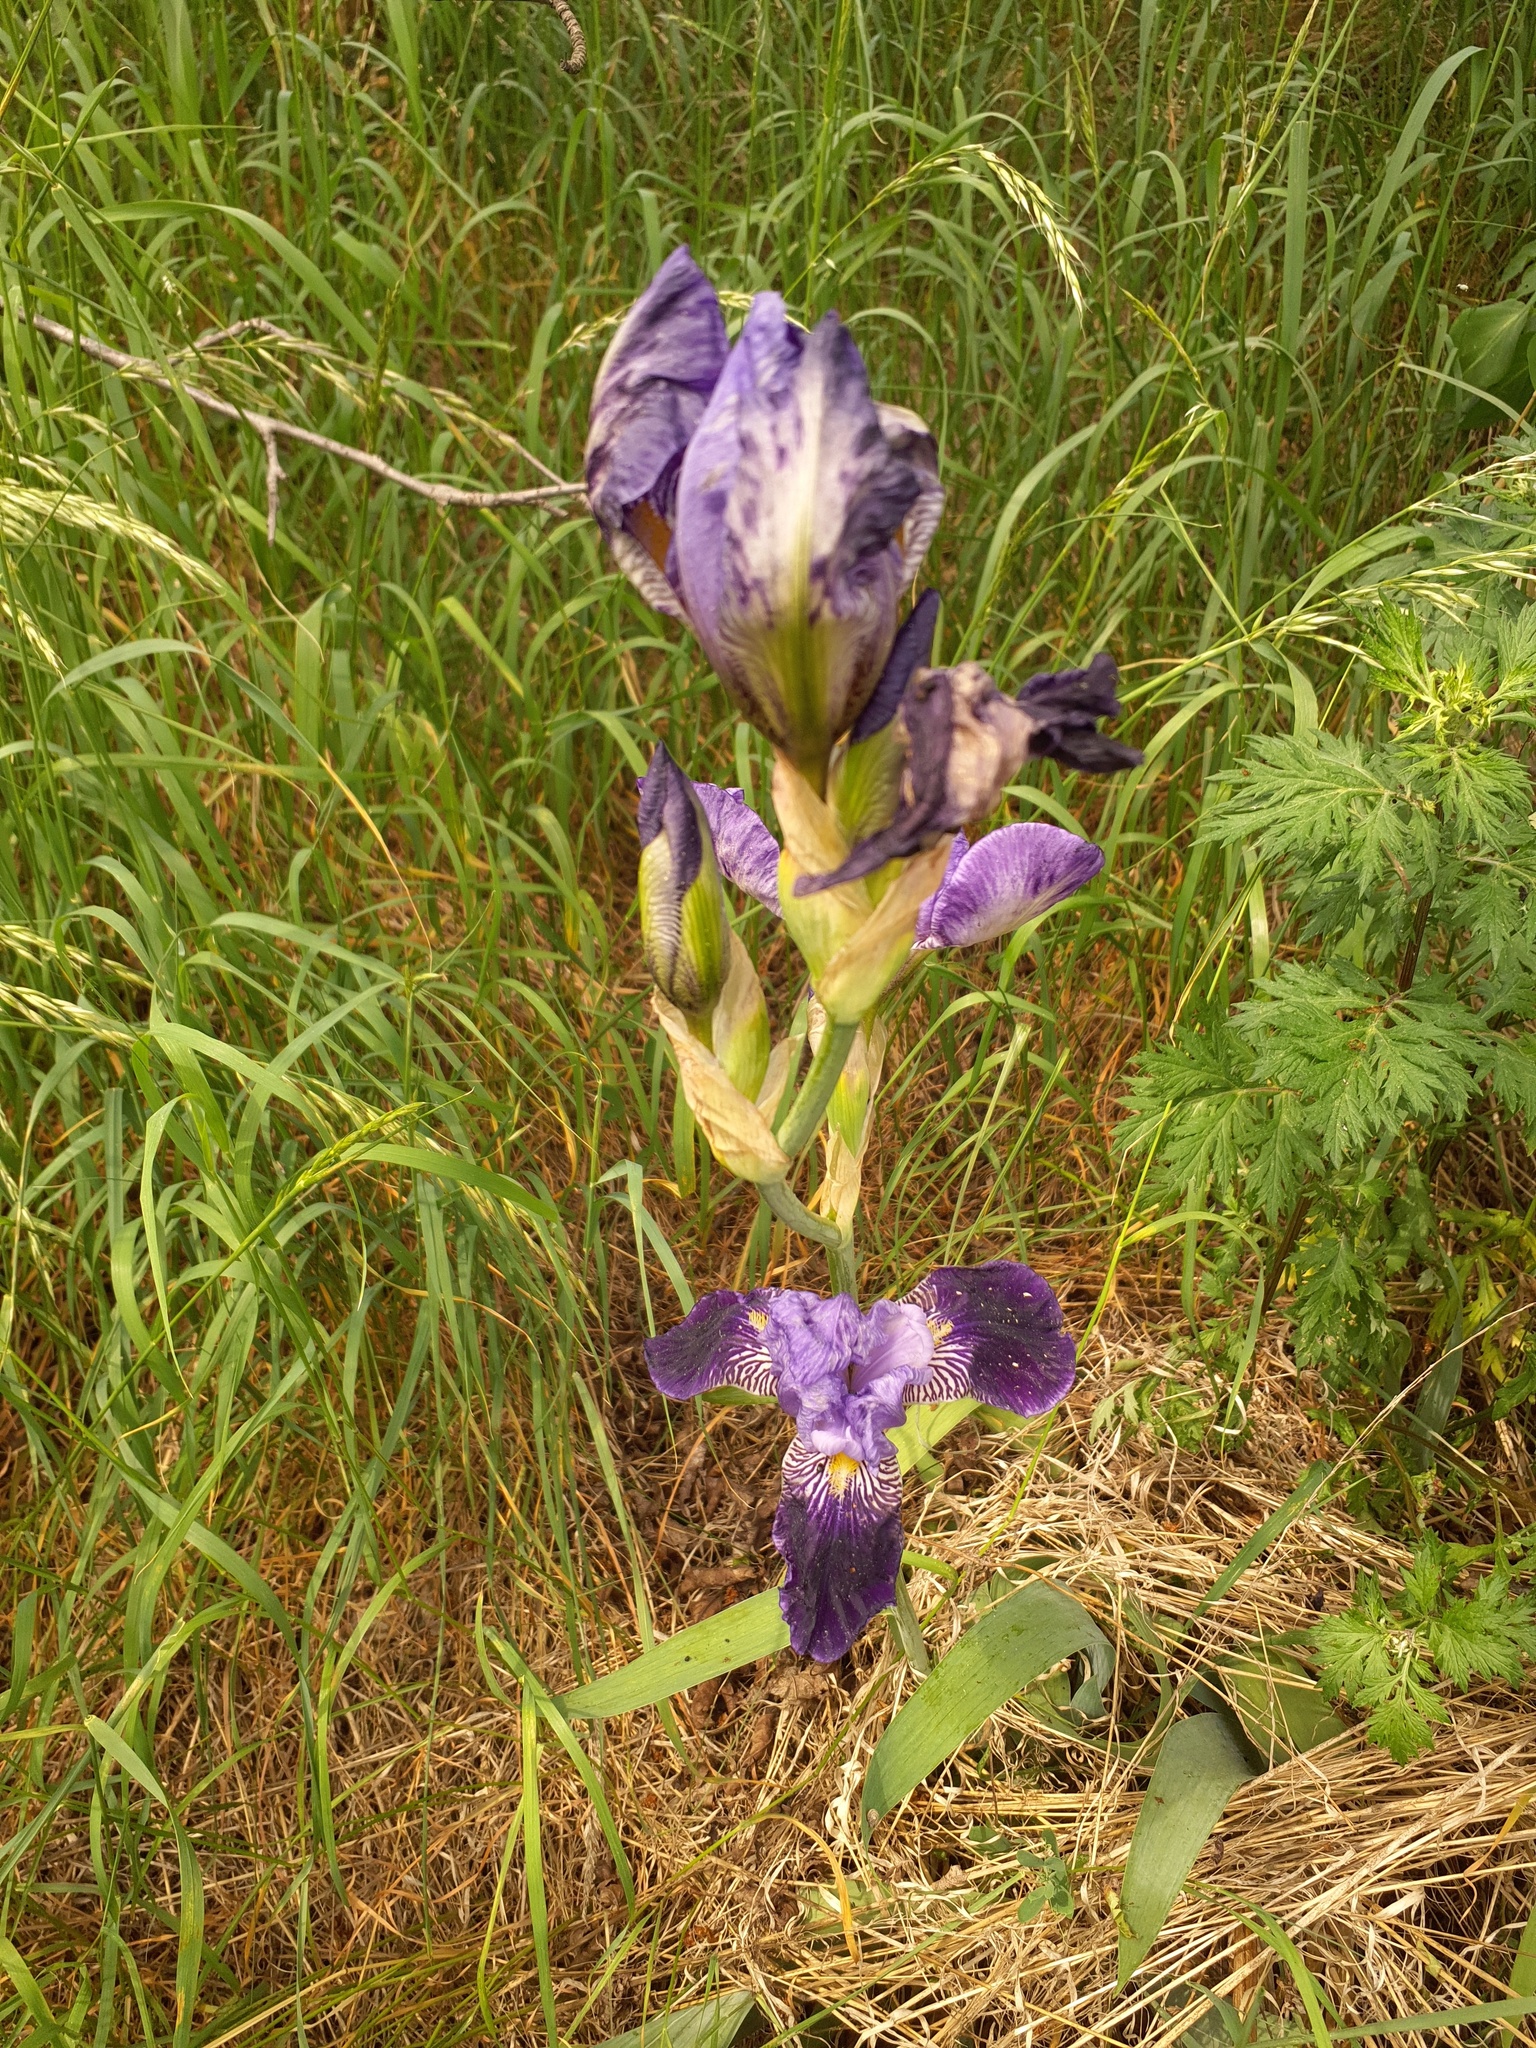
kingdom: Plantae
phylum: Tracheophyta
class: Liliopsida
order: Asparagales
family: Iridaceae
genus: Iris
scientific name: Iris hybrida
